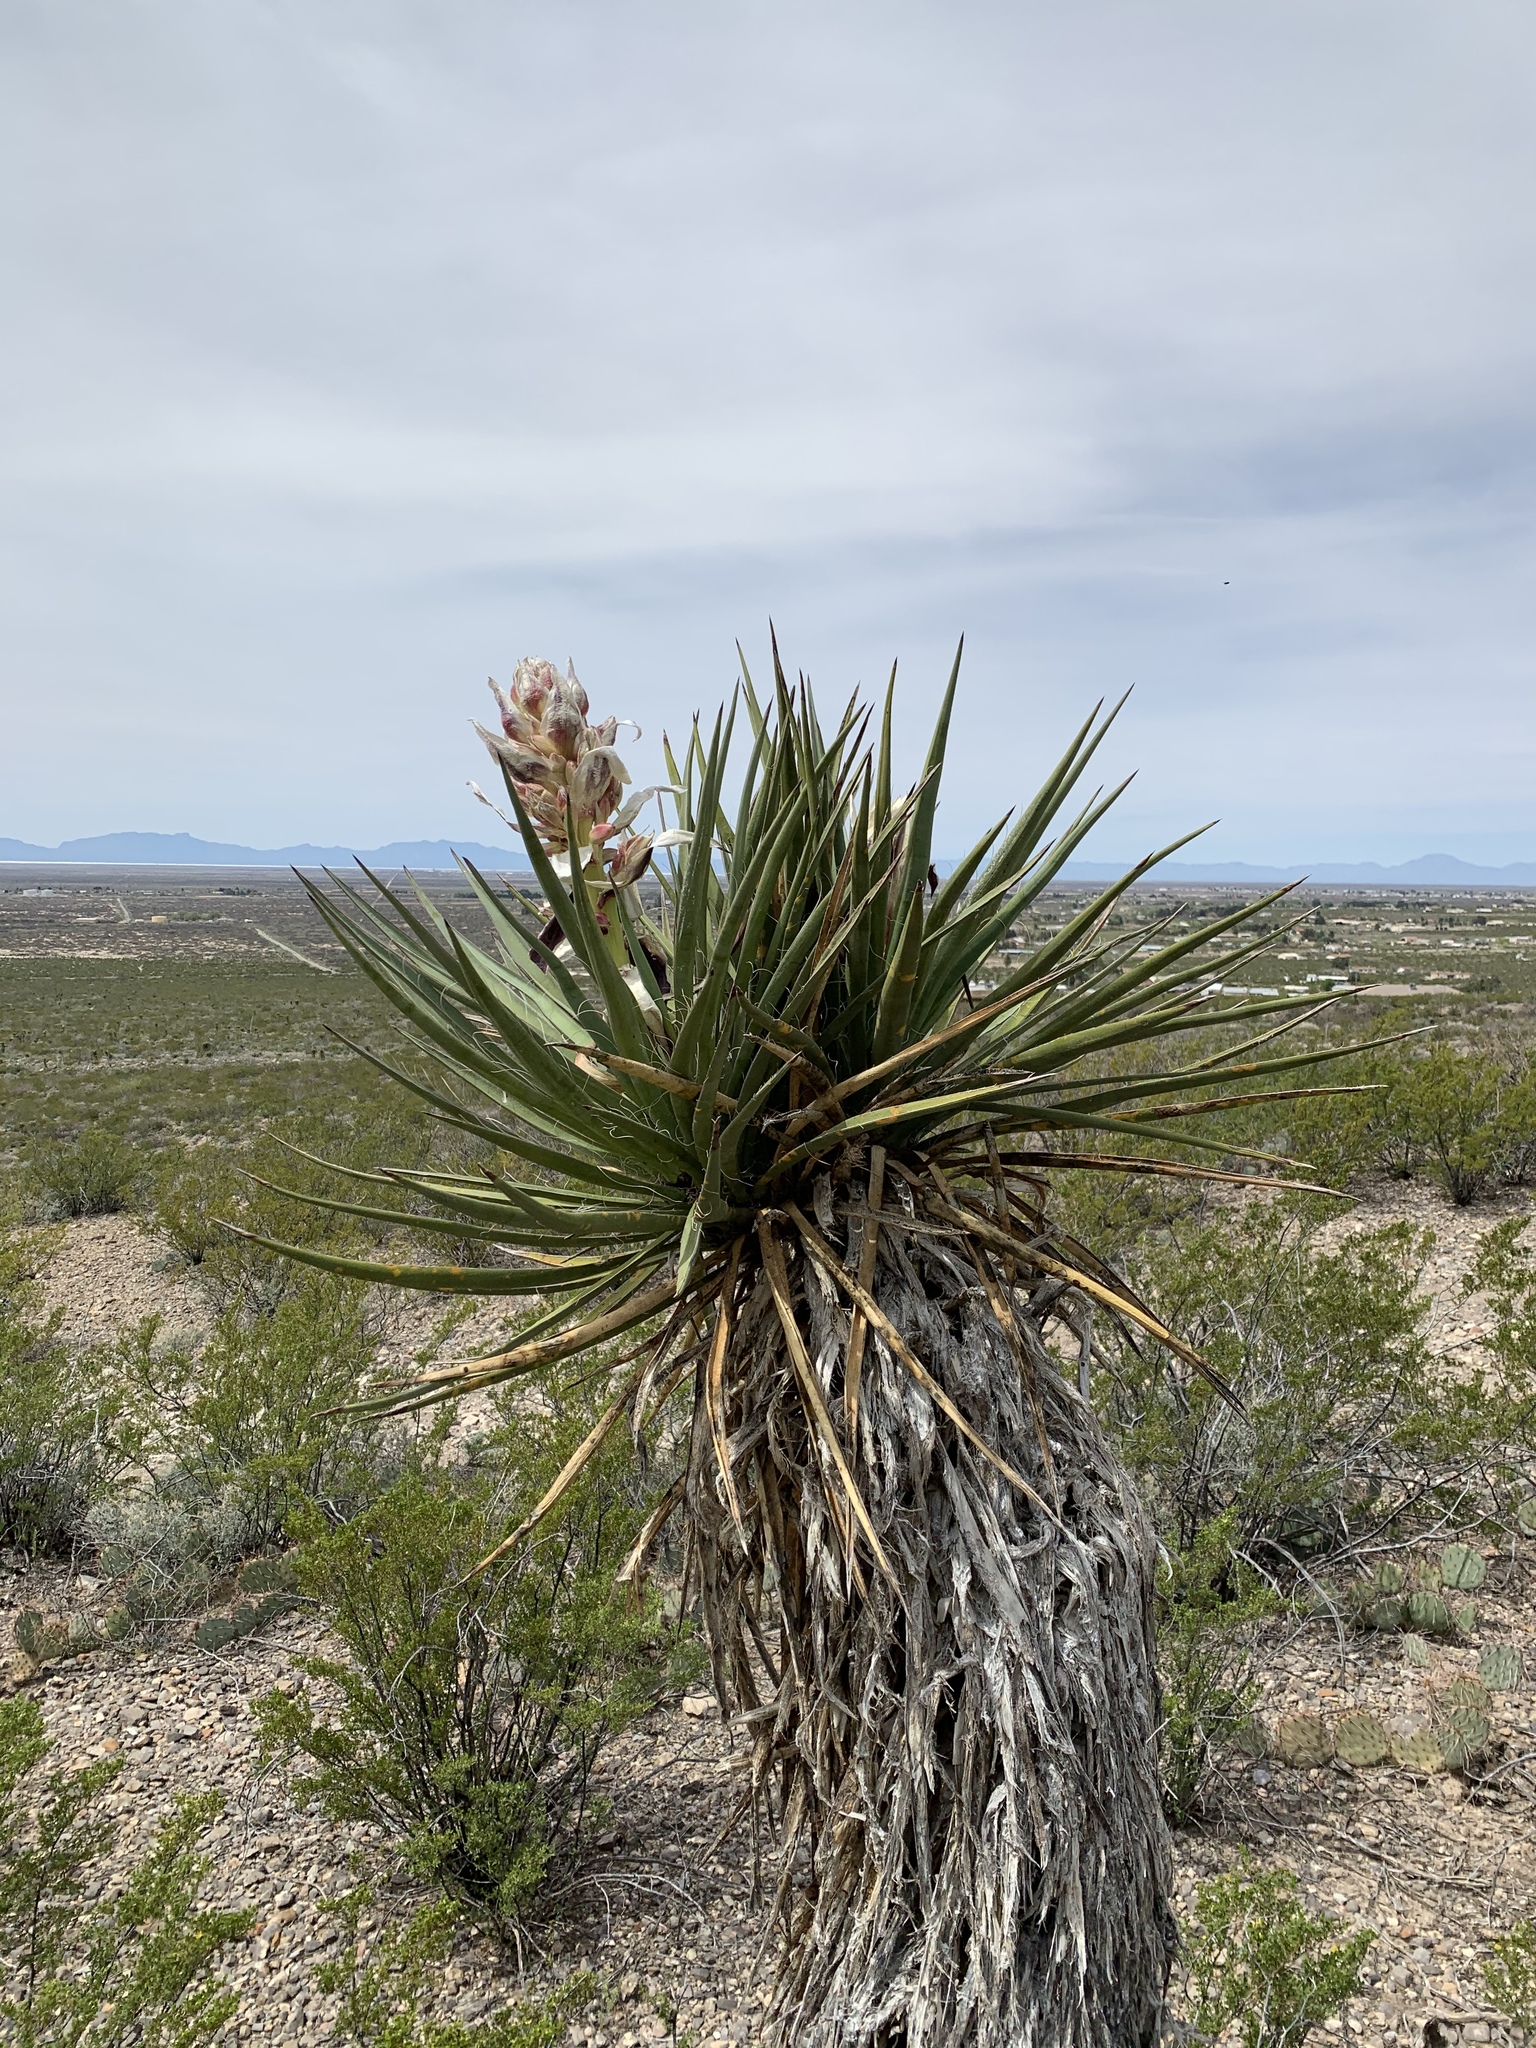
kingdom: Plantae
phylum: Tracheophyta
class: Liliopsida
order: Asparagales
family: Asparagaceae
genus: Yucca
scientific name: Yucca treculiana
